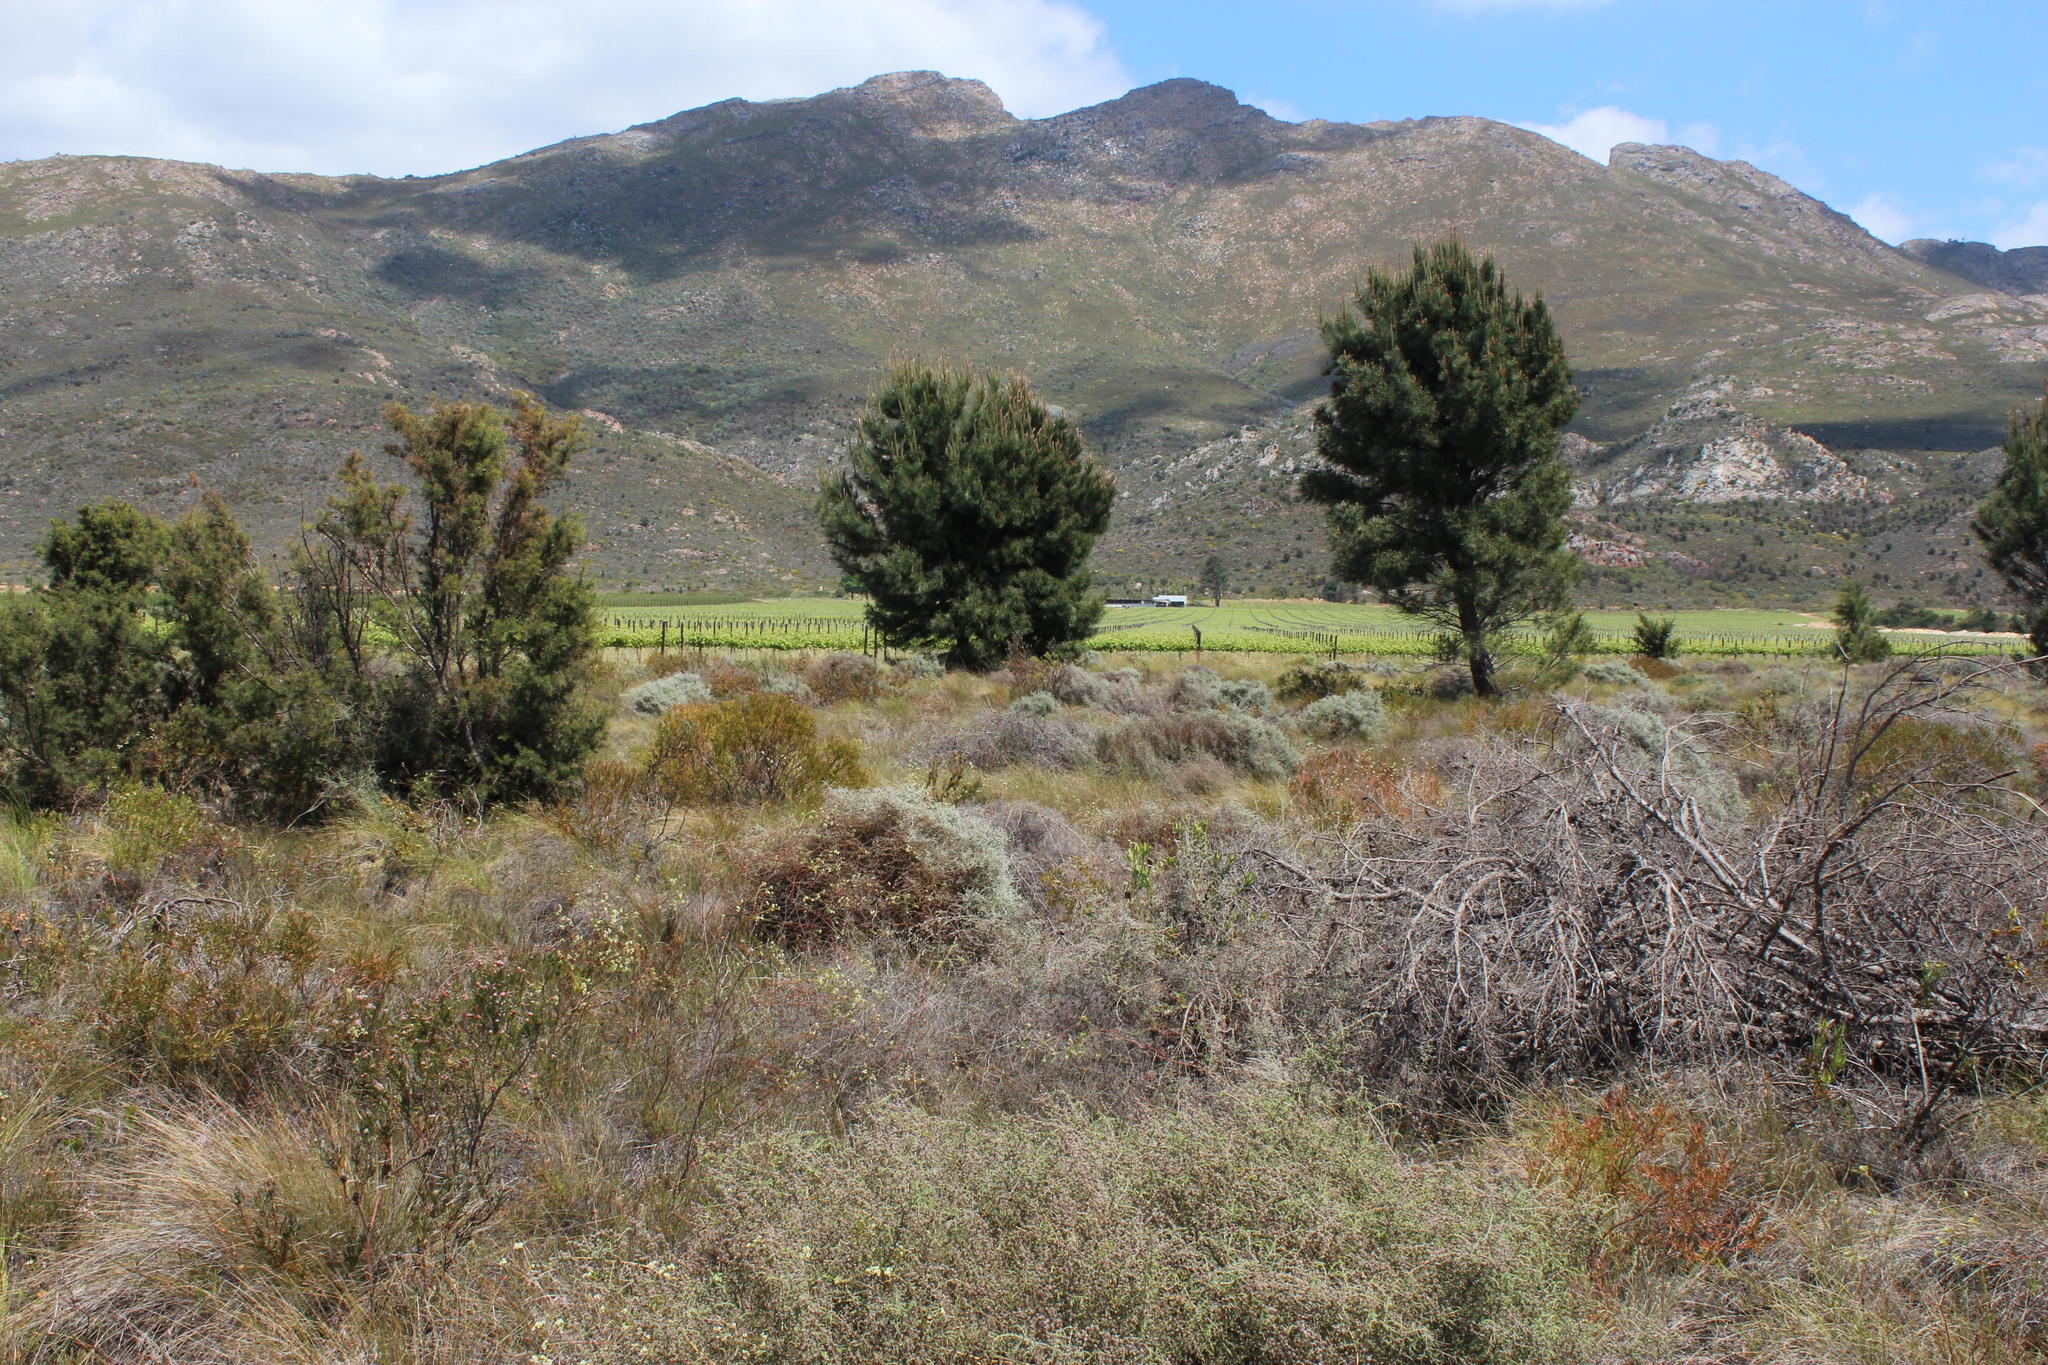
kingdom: Plantae
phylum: Tracheophyta
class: Pinopsida
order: Pinales
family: Pinaceae
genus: Pinus
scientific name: Pinus pinaster
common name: Maritime pine
